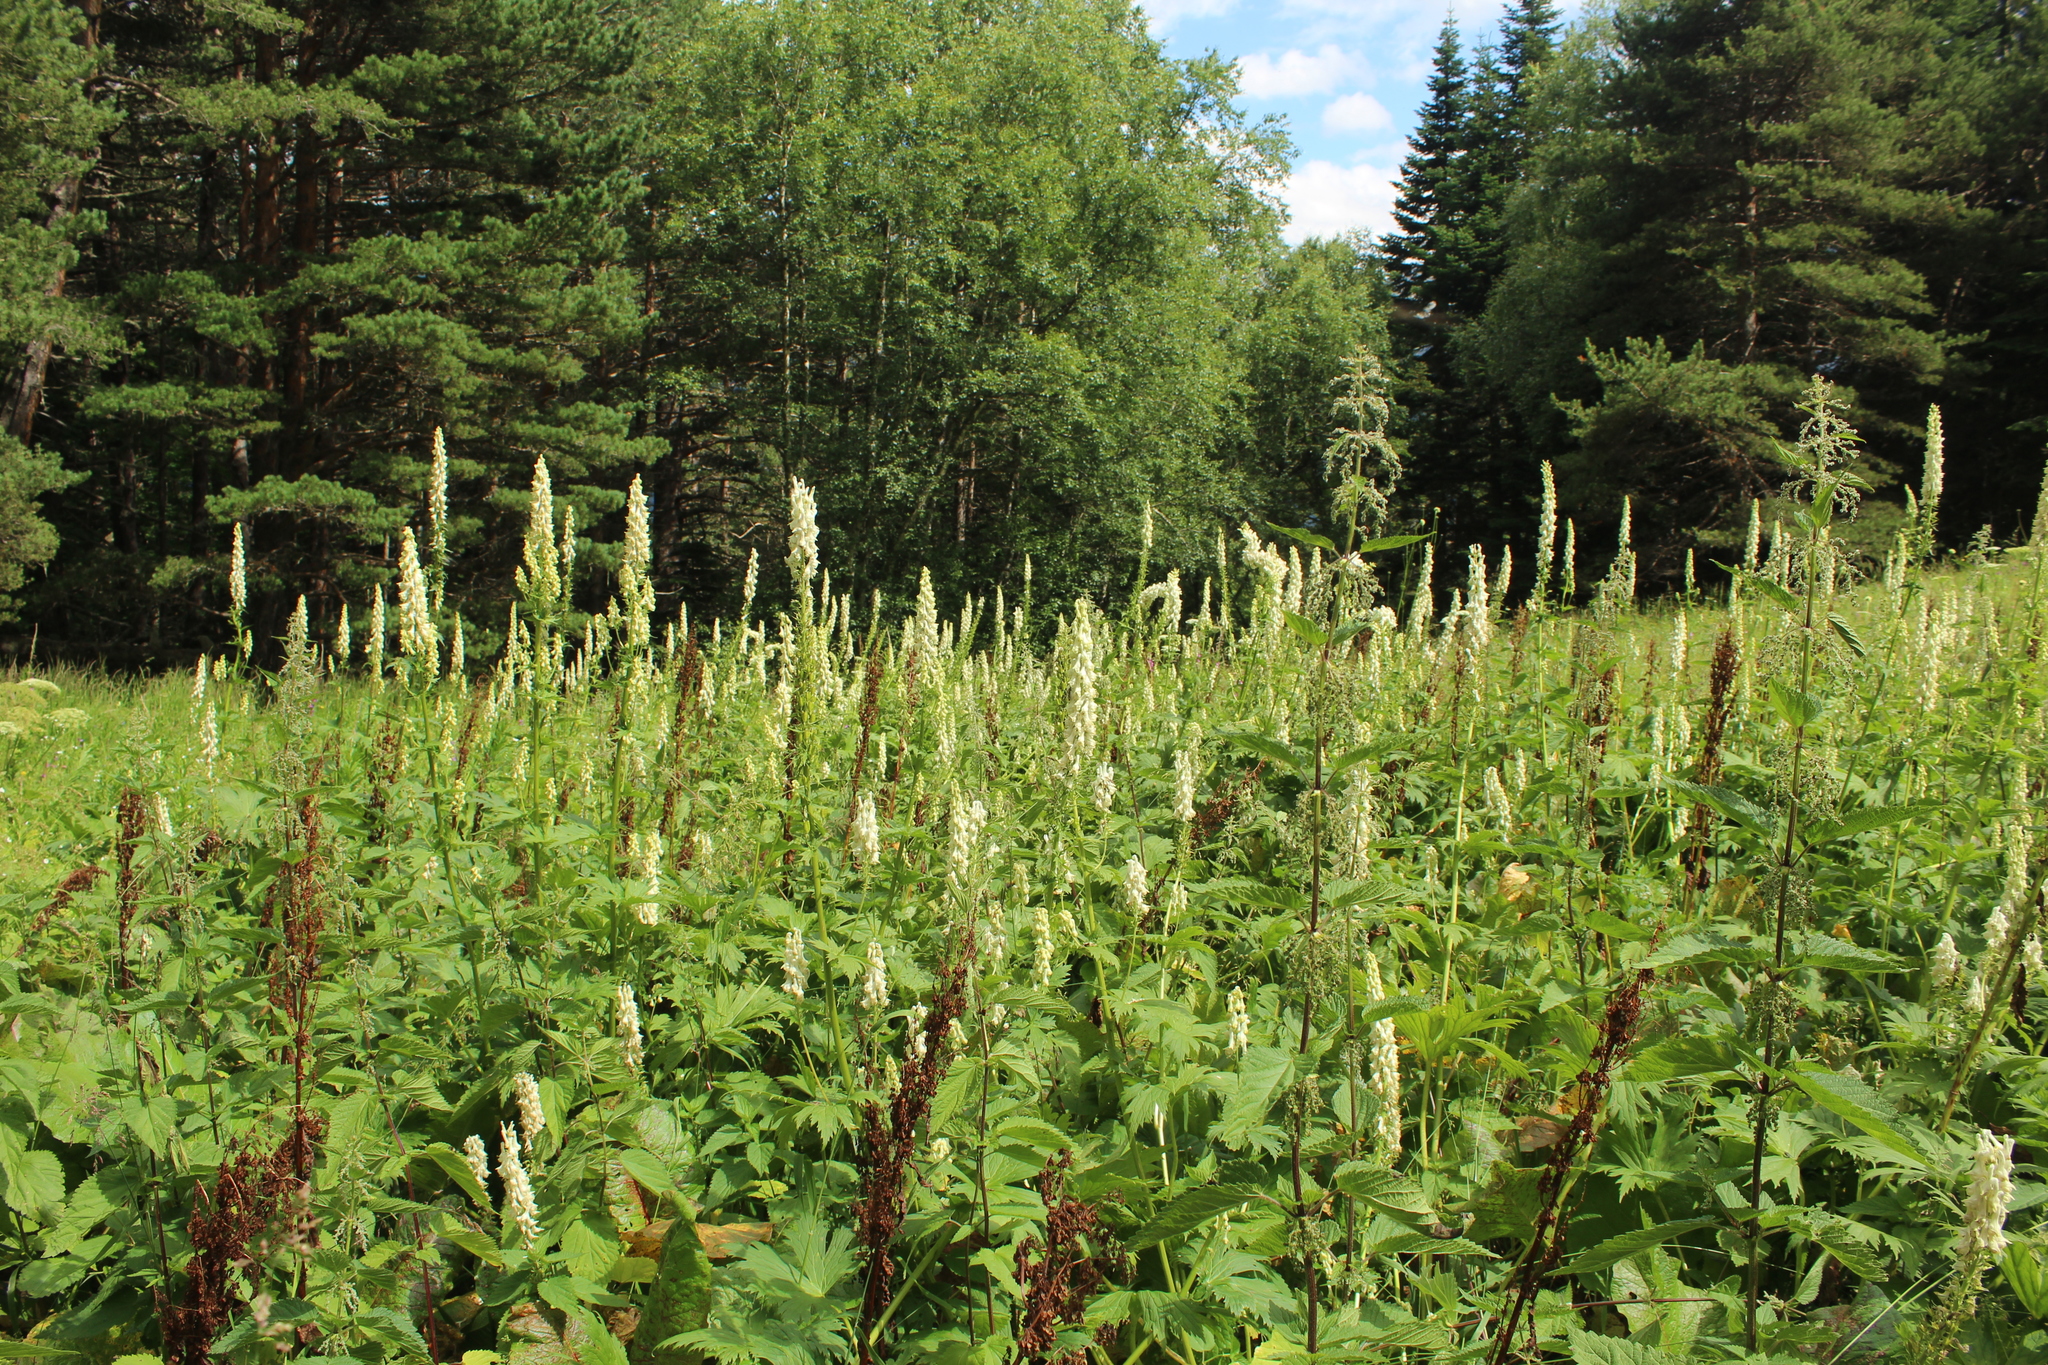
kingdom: Plantae
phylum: Tracheophyta
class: Magnoliopsida
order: Ranunculales
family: Ranunculaceae
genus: Aconitum
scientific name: Aconitum orientale
